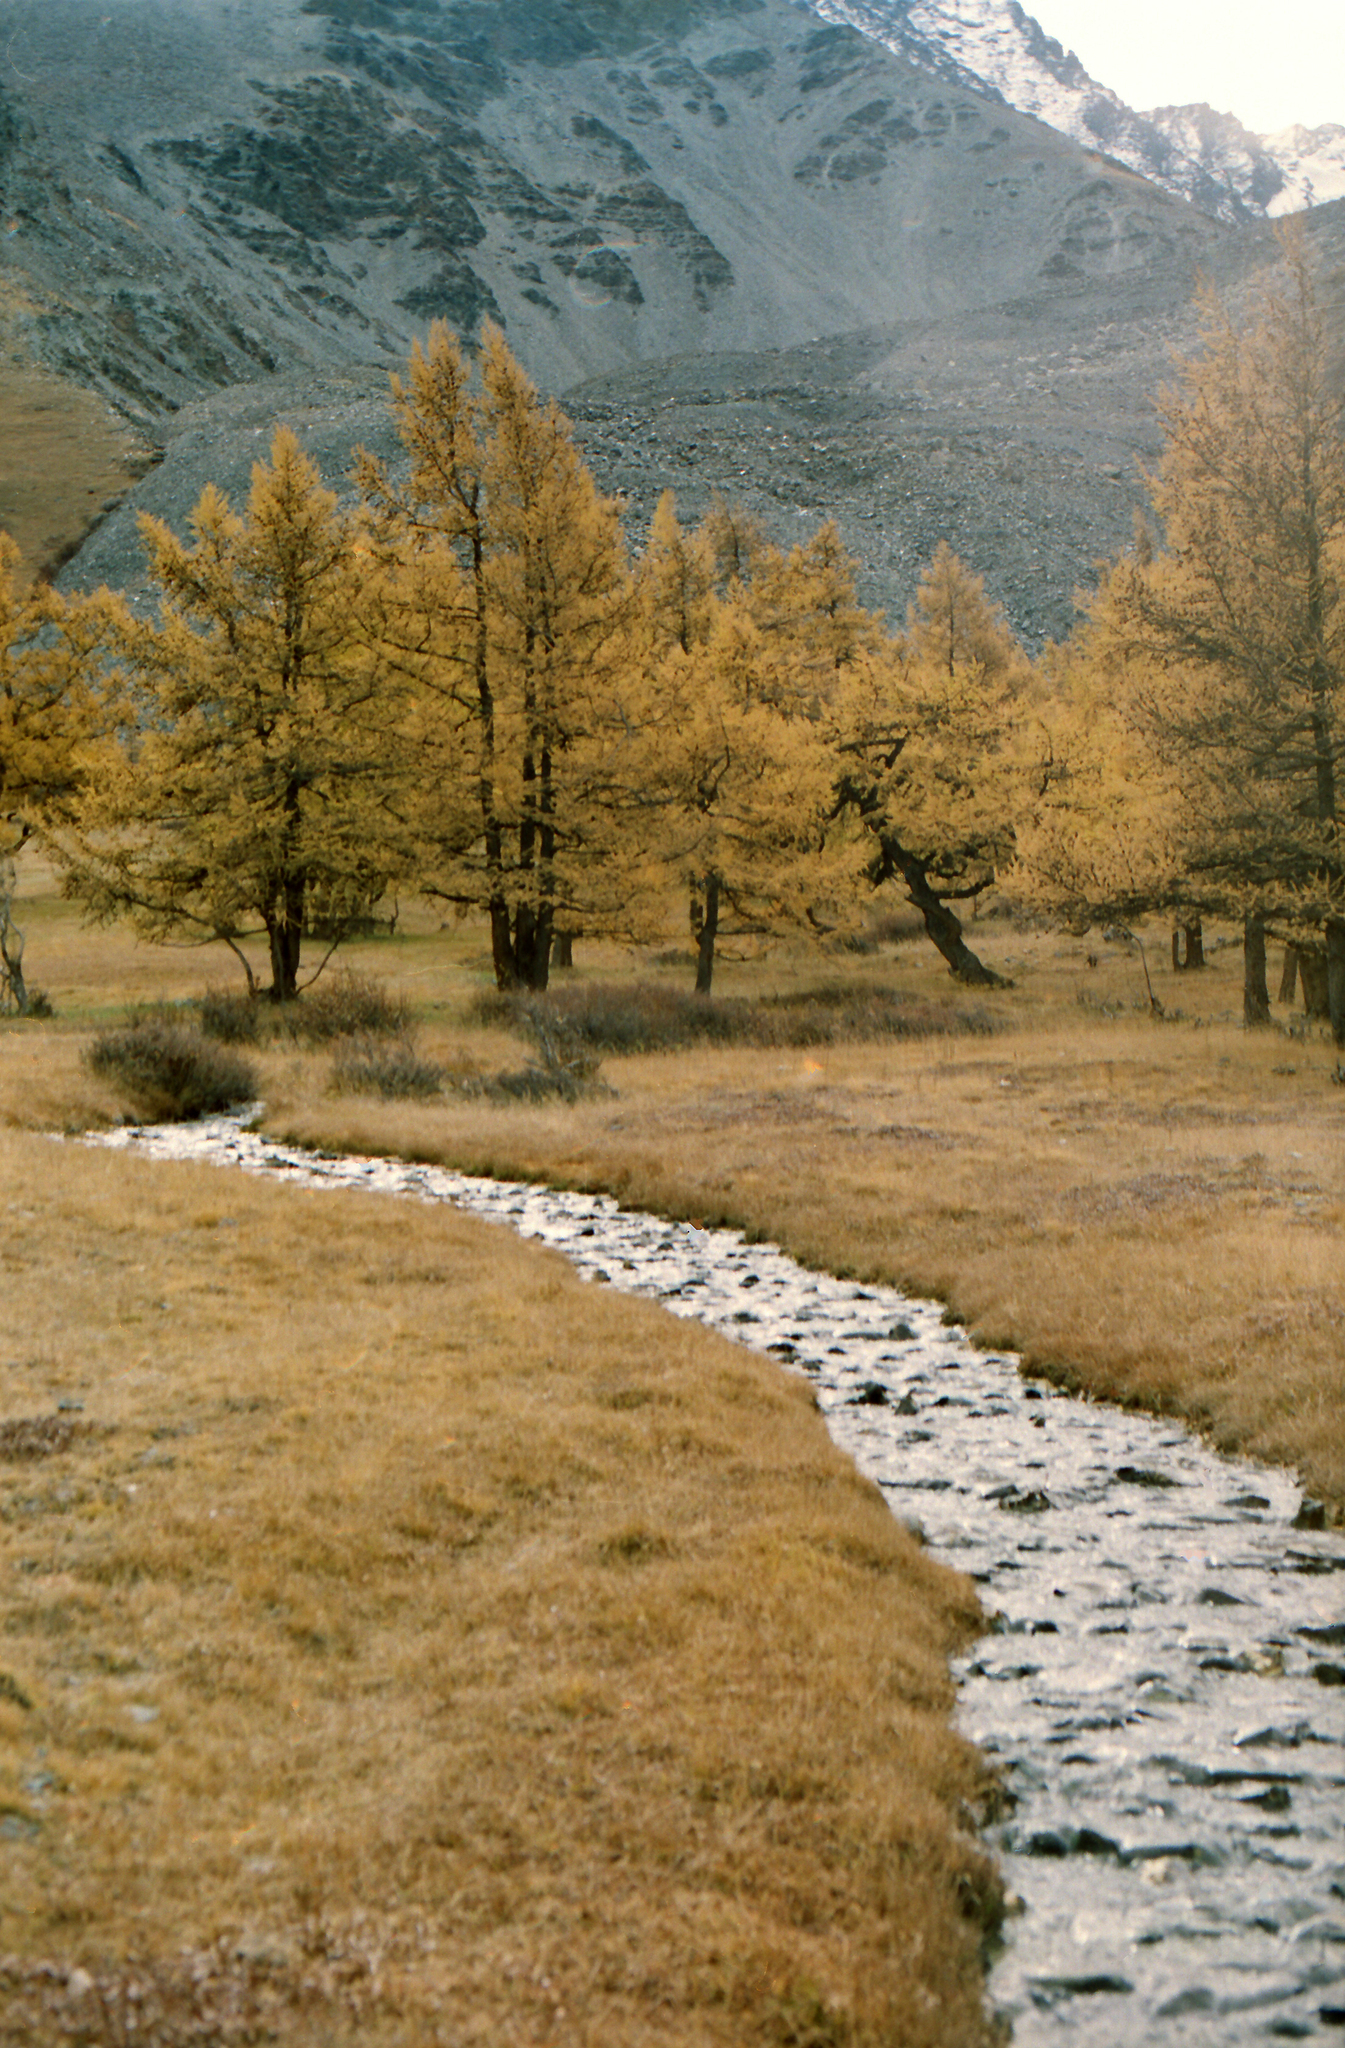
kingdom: Plantae
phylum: Tracheophyta
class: Pinopsida
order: Pinales
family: Pinaceae
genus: Larix
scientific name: Larix sibirica
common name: Siberian larch
